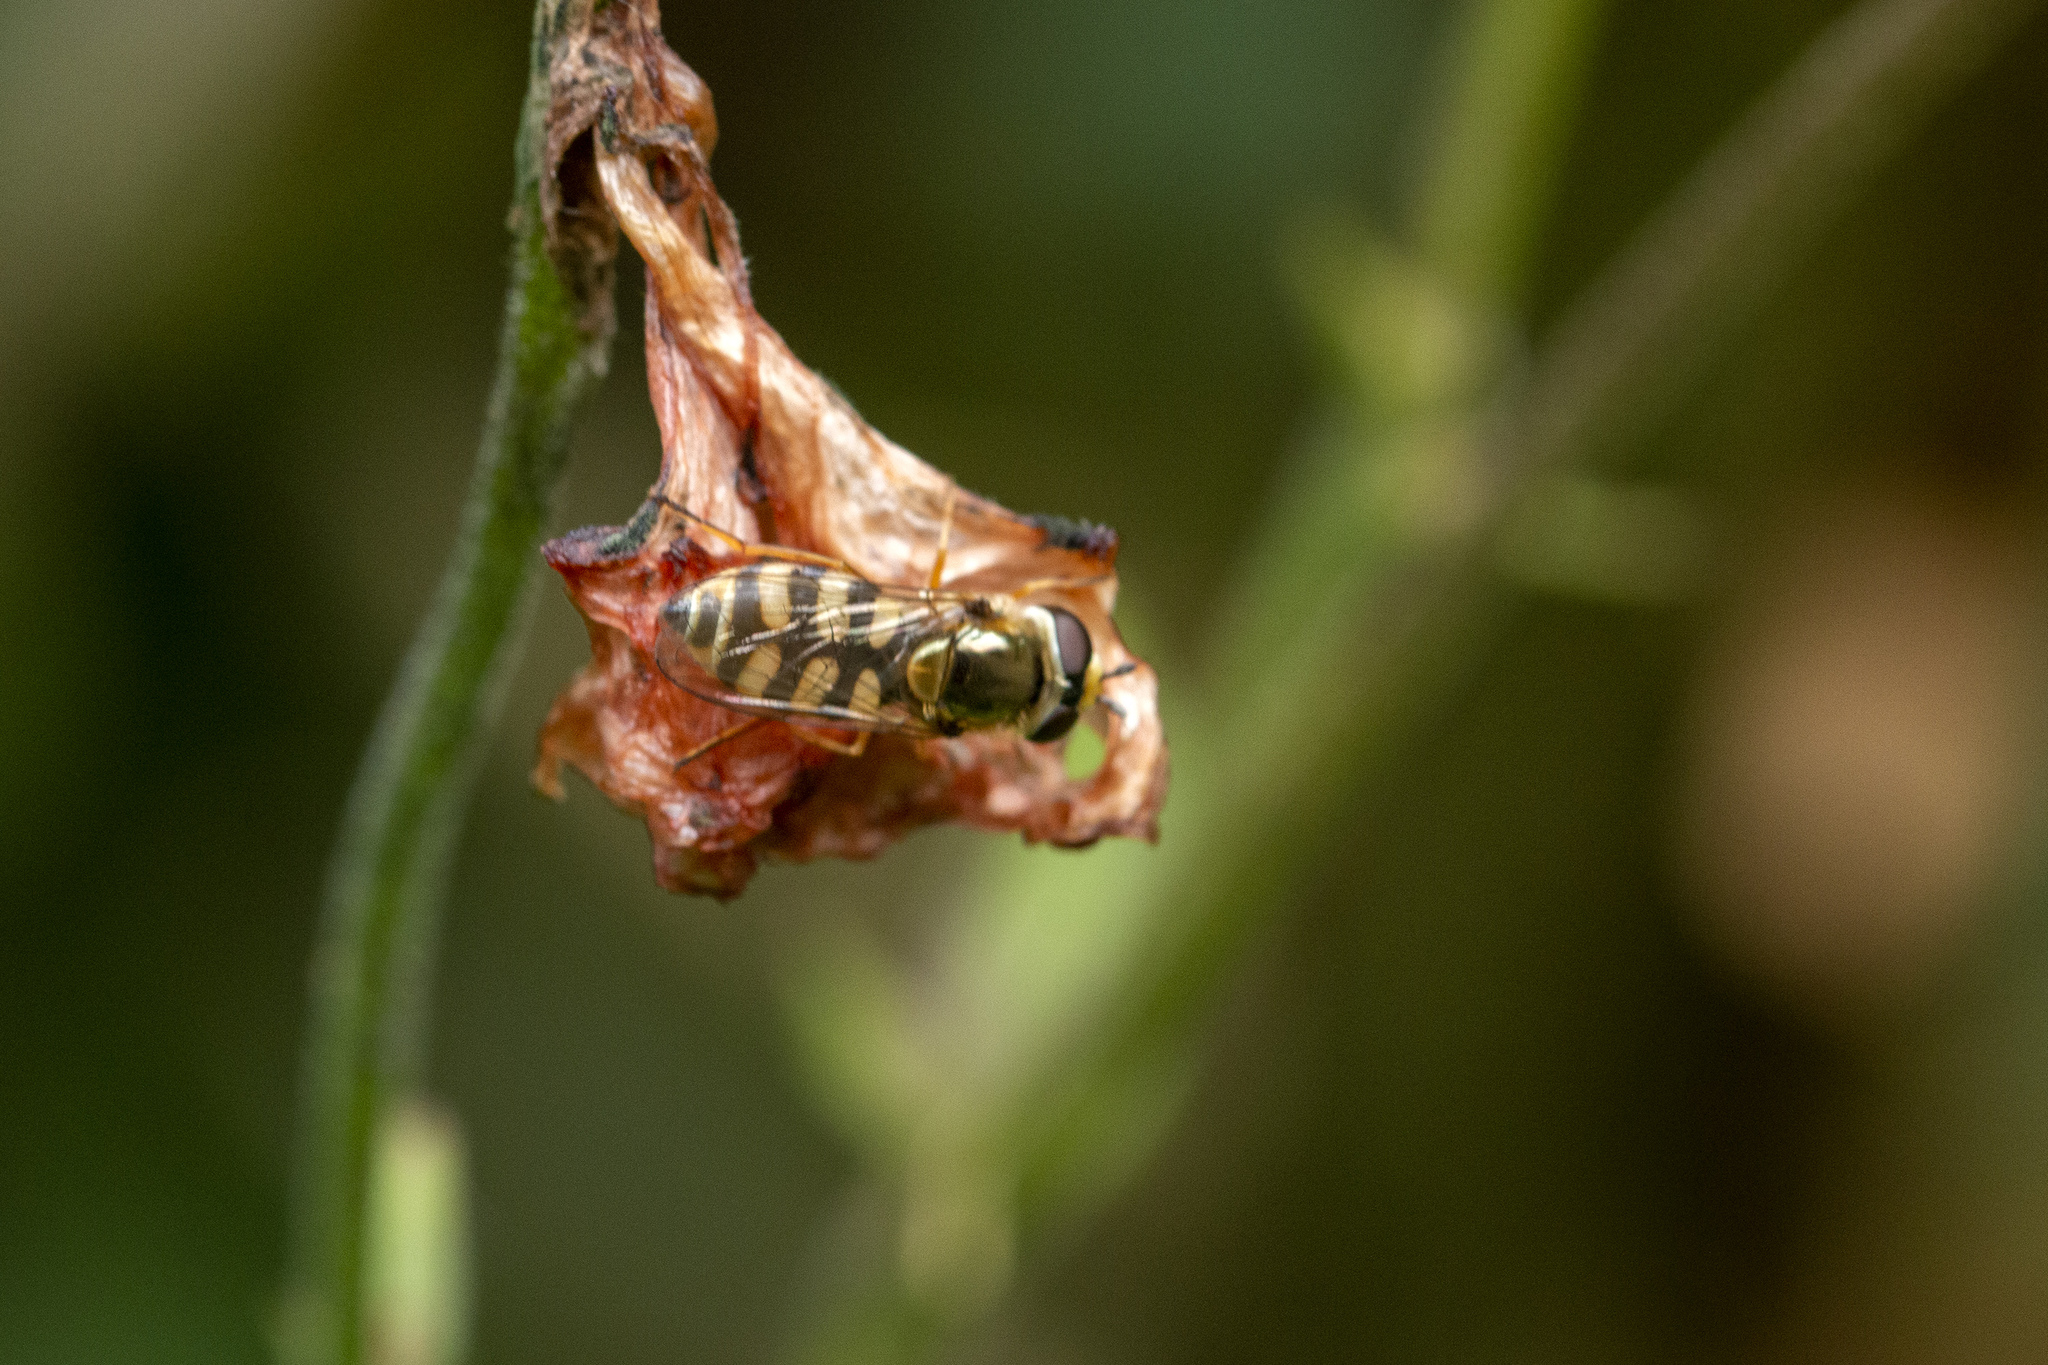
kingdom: Animalia
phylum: Arthropoda
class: Insecta
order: Diptera
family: Syrphidae
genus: Eupeodes
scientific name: Eupeodes corollae
